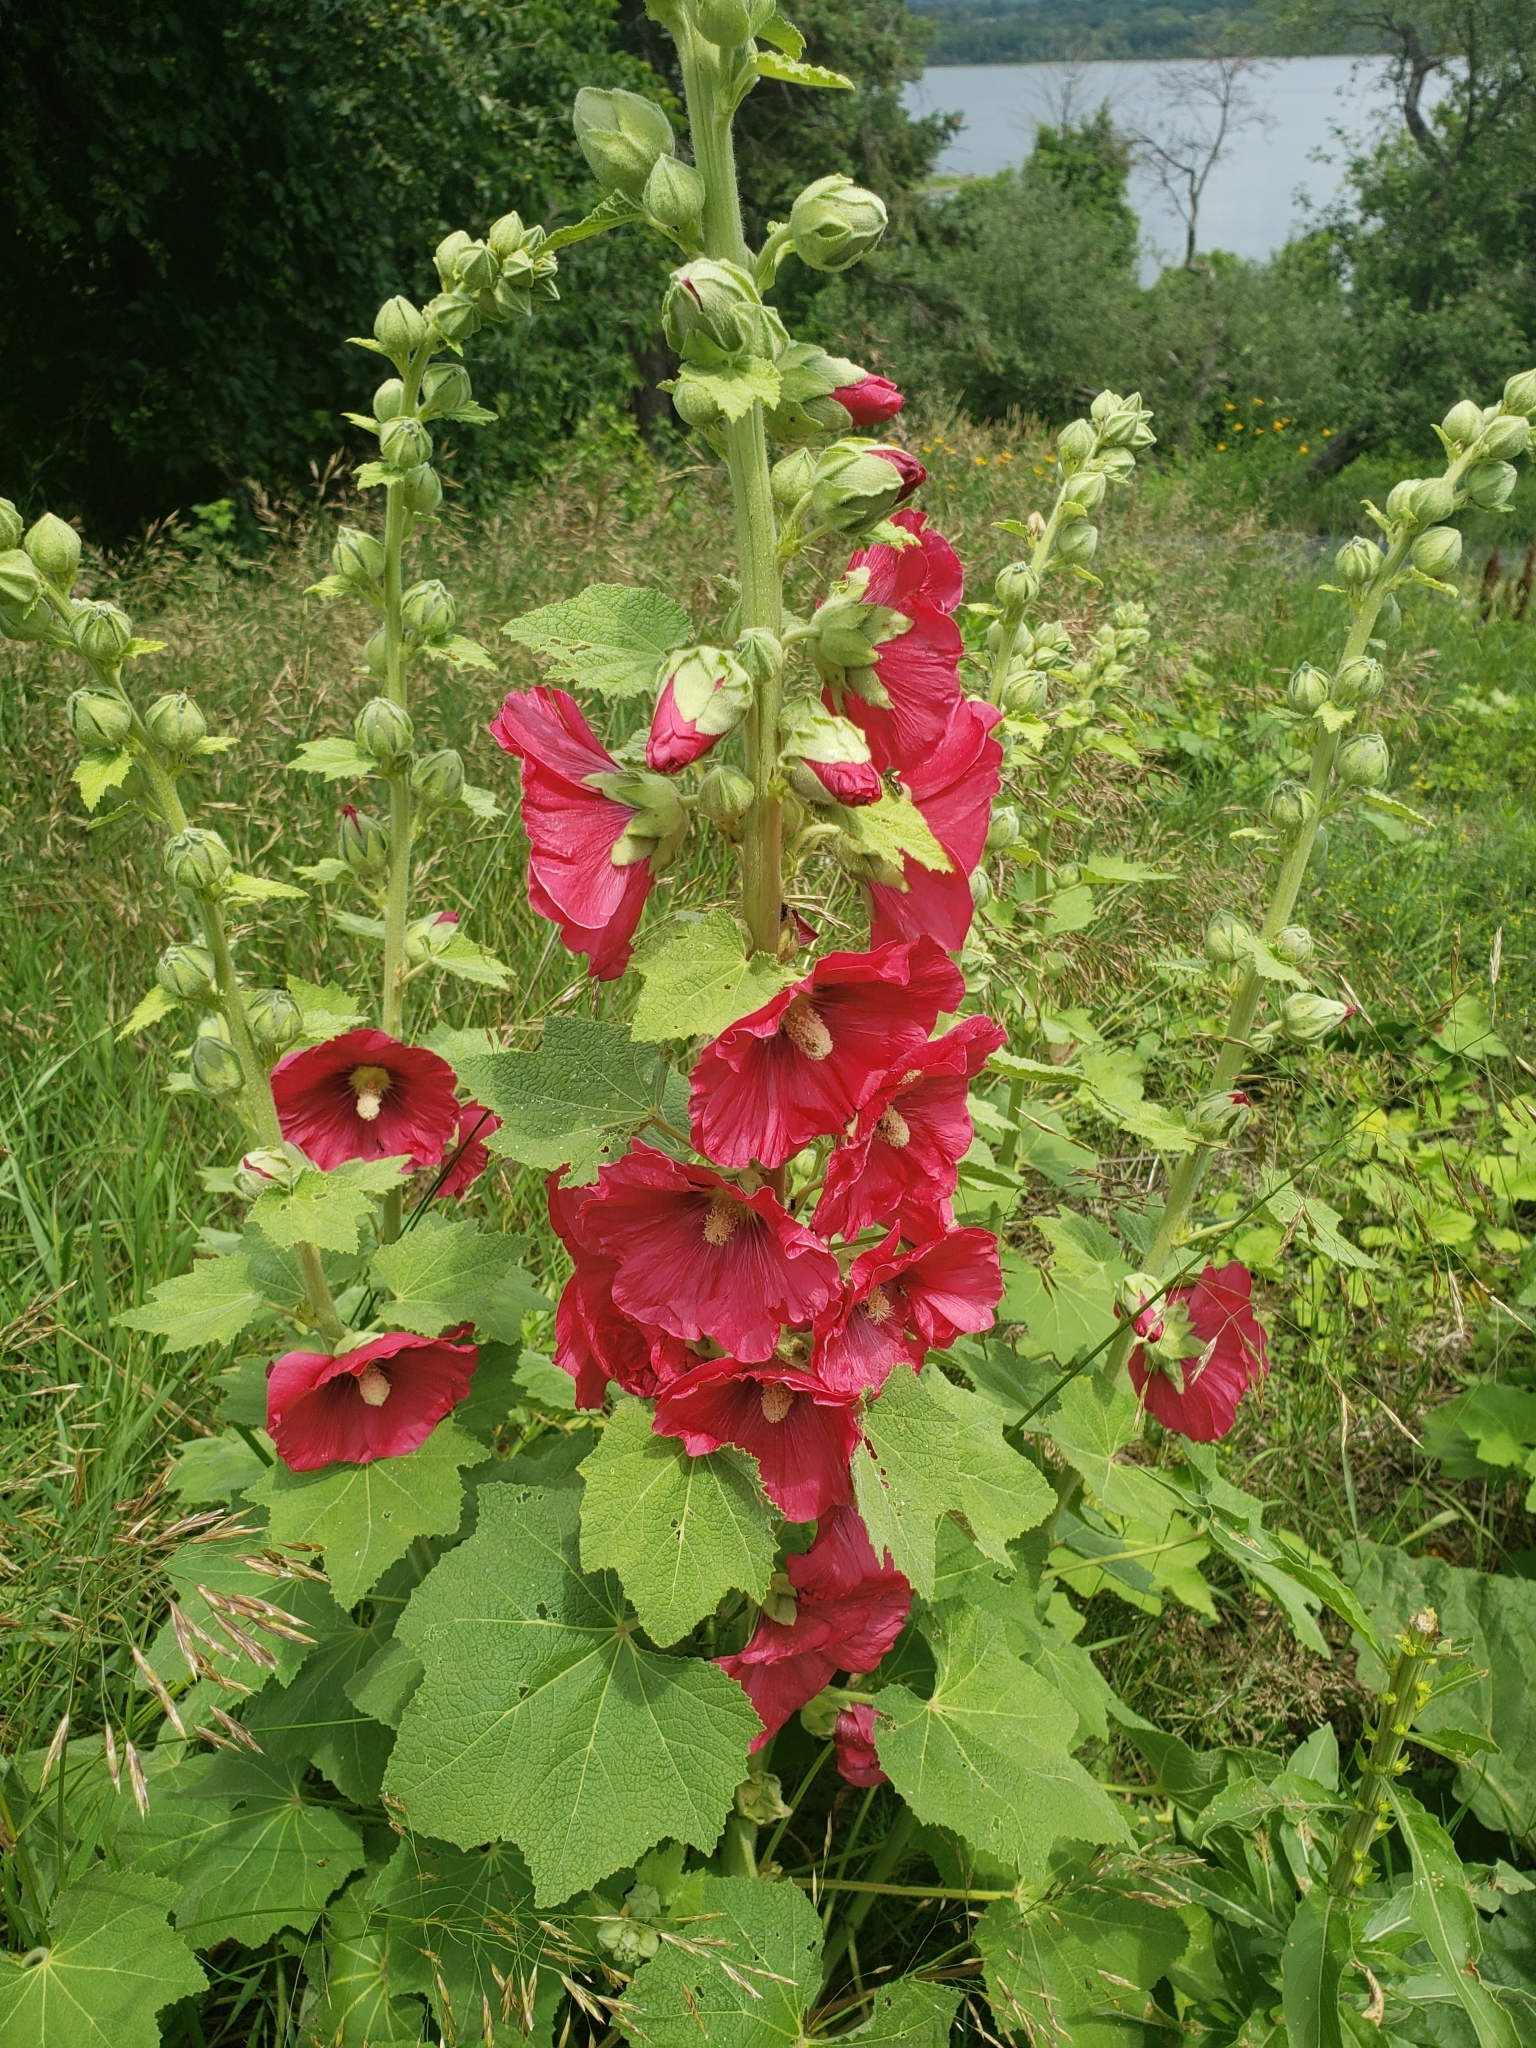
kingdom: Plantae
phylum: Tracheophyta
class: Magnoliopsida
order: Malvales
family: Malvaceae
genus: Alcea
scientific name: Alcea rosea
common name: Hollyhock
